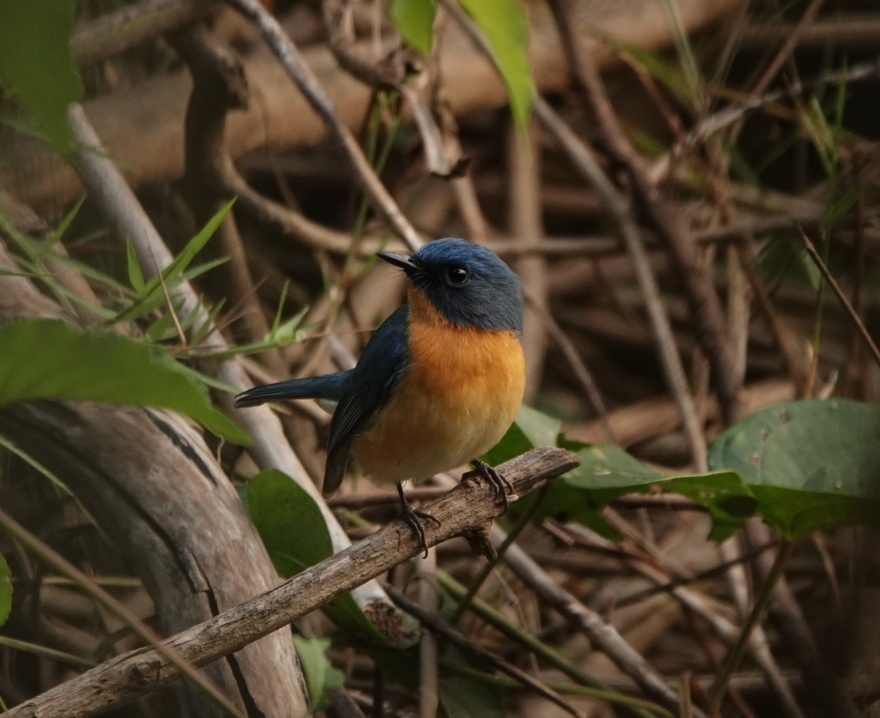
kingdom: Animalia
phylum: Chordata
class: Aves
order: Passeriformes
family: Muscicapidae
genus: Cyornis
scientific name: Cyornis tickelliae
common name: Tickell's blue flycatcher
